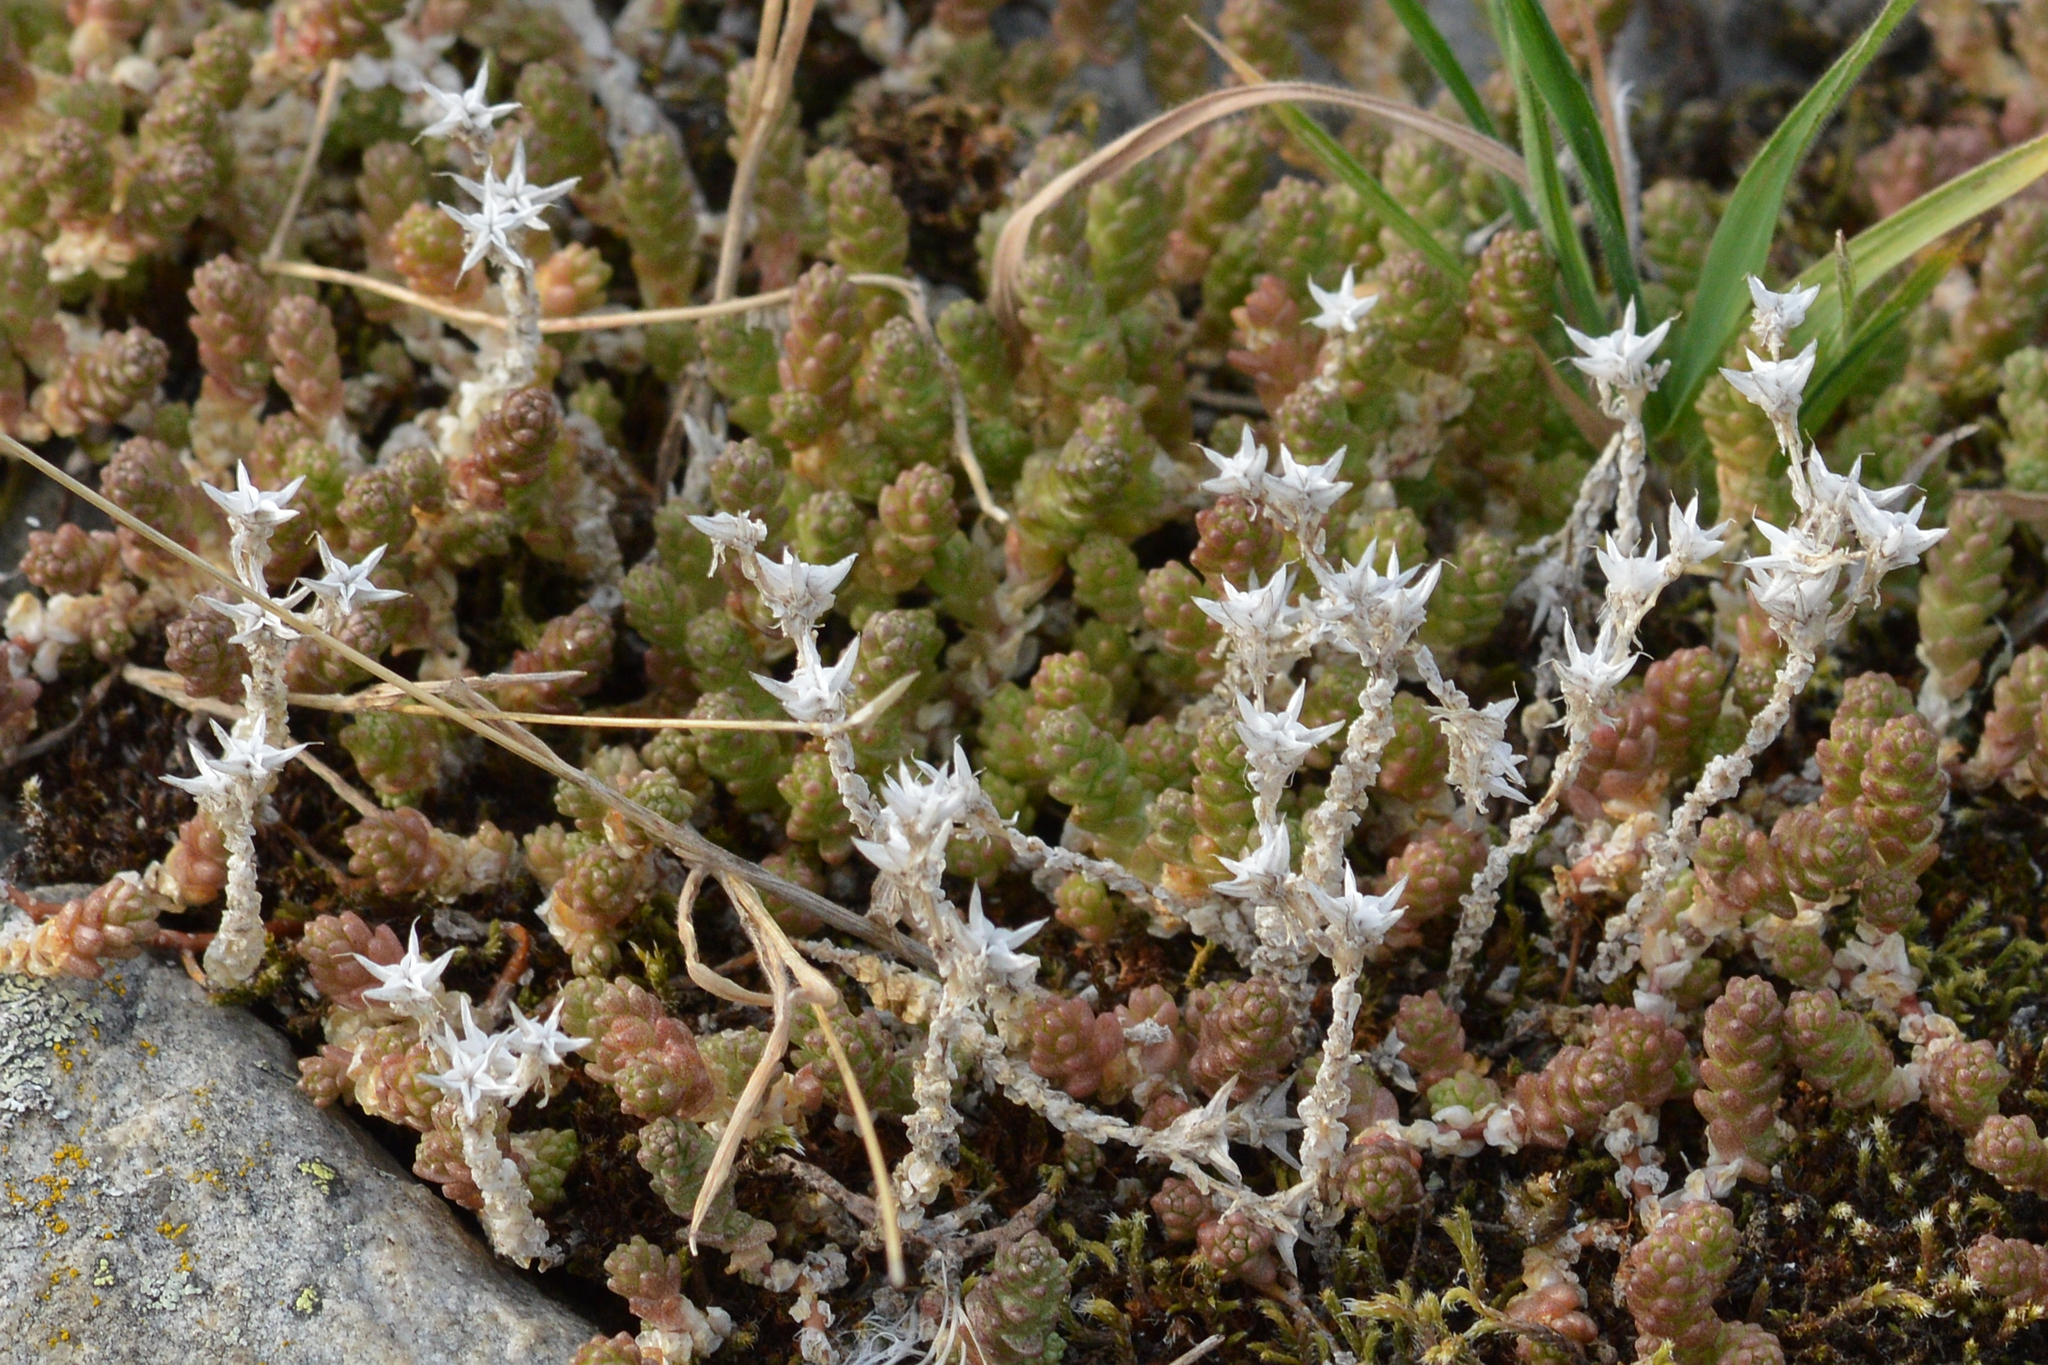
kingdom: Plantae
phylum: Tracheophyta
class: Magnoliopsida
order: Saxifragales
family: Crassulaceae
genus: Sedum
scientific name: Sedum acre
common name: Biting stonecrop
